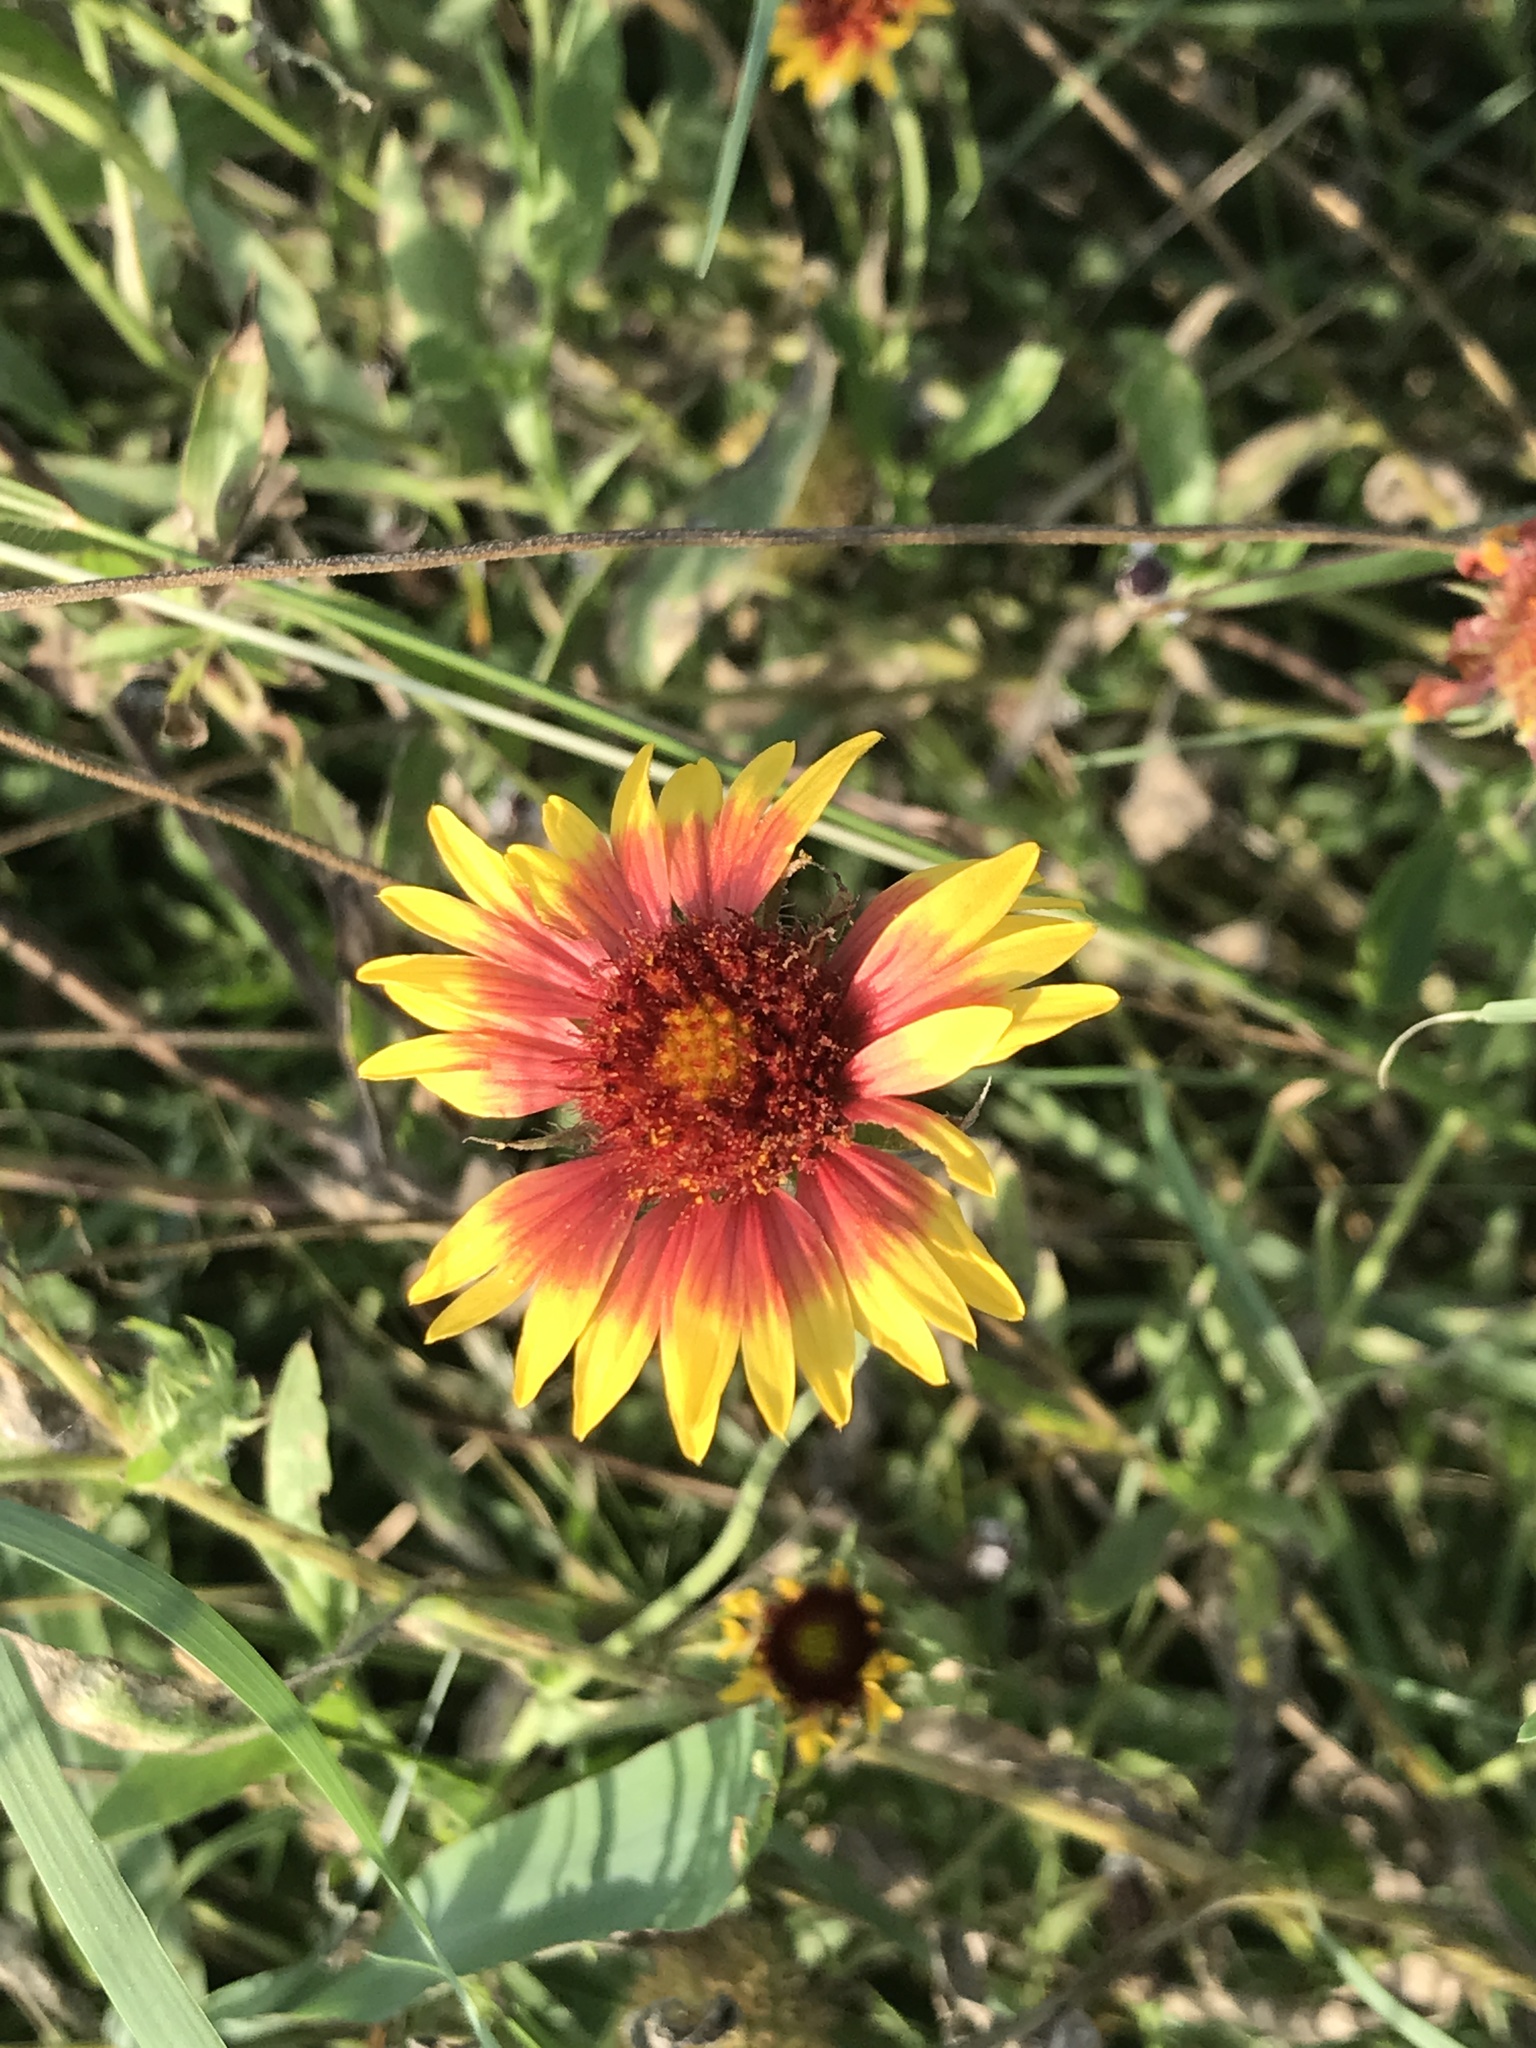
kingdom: Plantae
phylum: Tracheophyta
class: Magnoliopsida
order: Asterales
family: Asteraceae
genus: Gaillardia
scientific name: Gaillardia pulchella
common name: Firewheel
